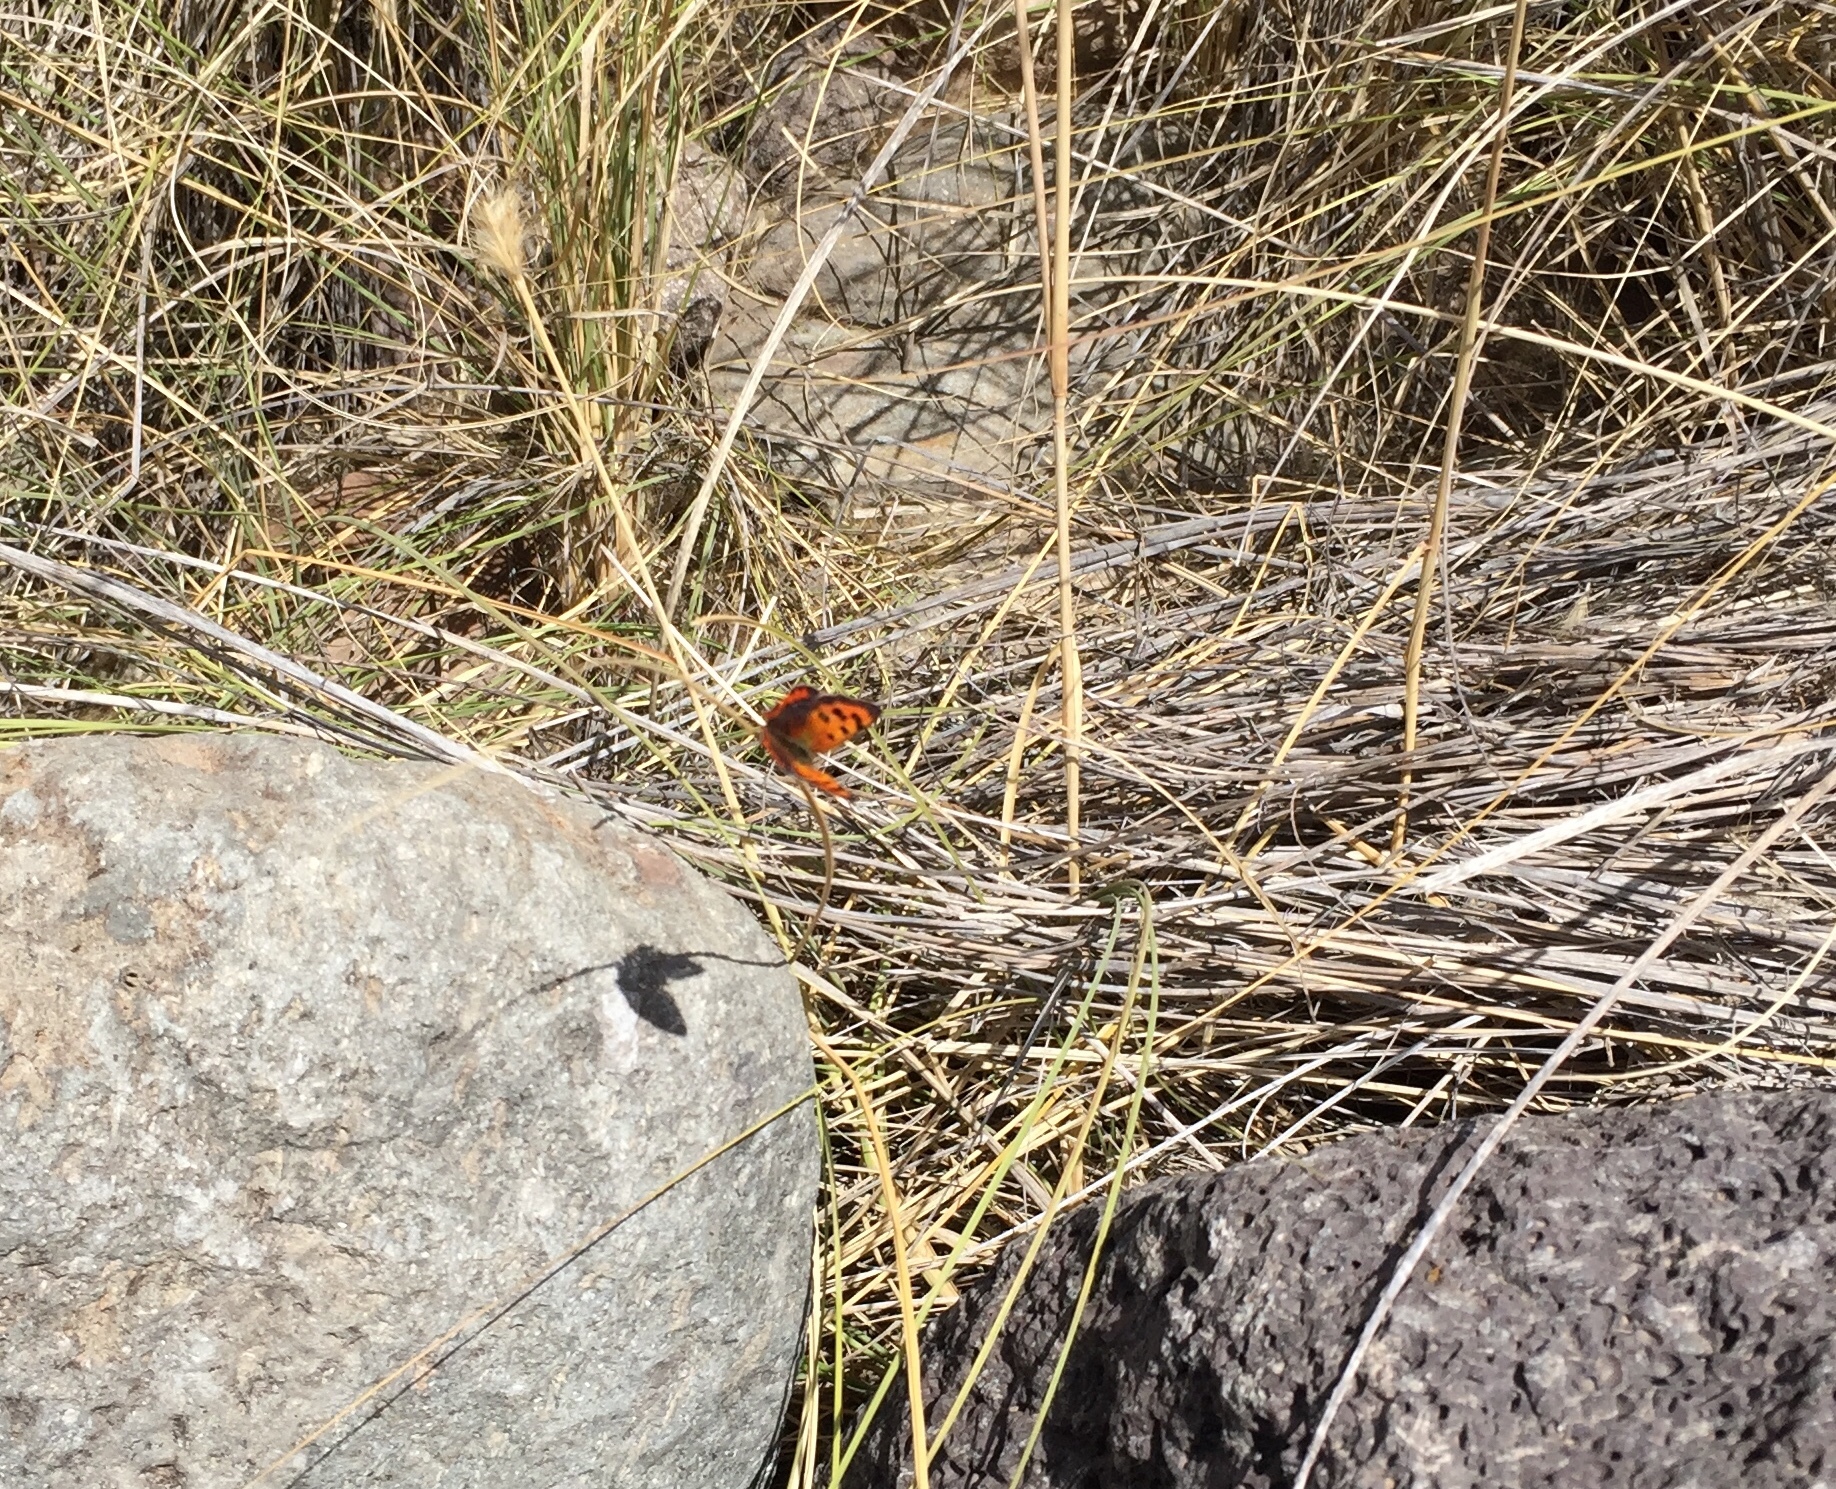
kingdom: Animalia
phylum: Arthropoda
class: Insecta
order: Lepidoptera
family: Lycaenidae
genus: Lycaena
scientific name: Lycaena phlaeas
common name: Small copper
